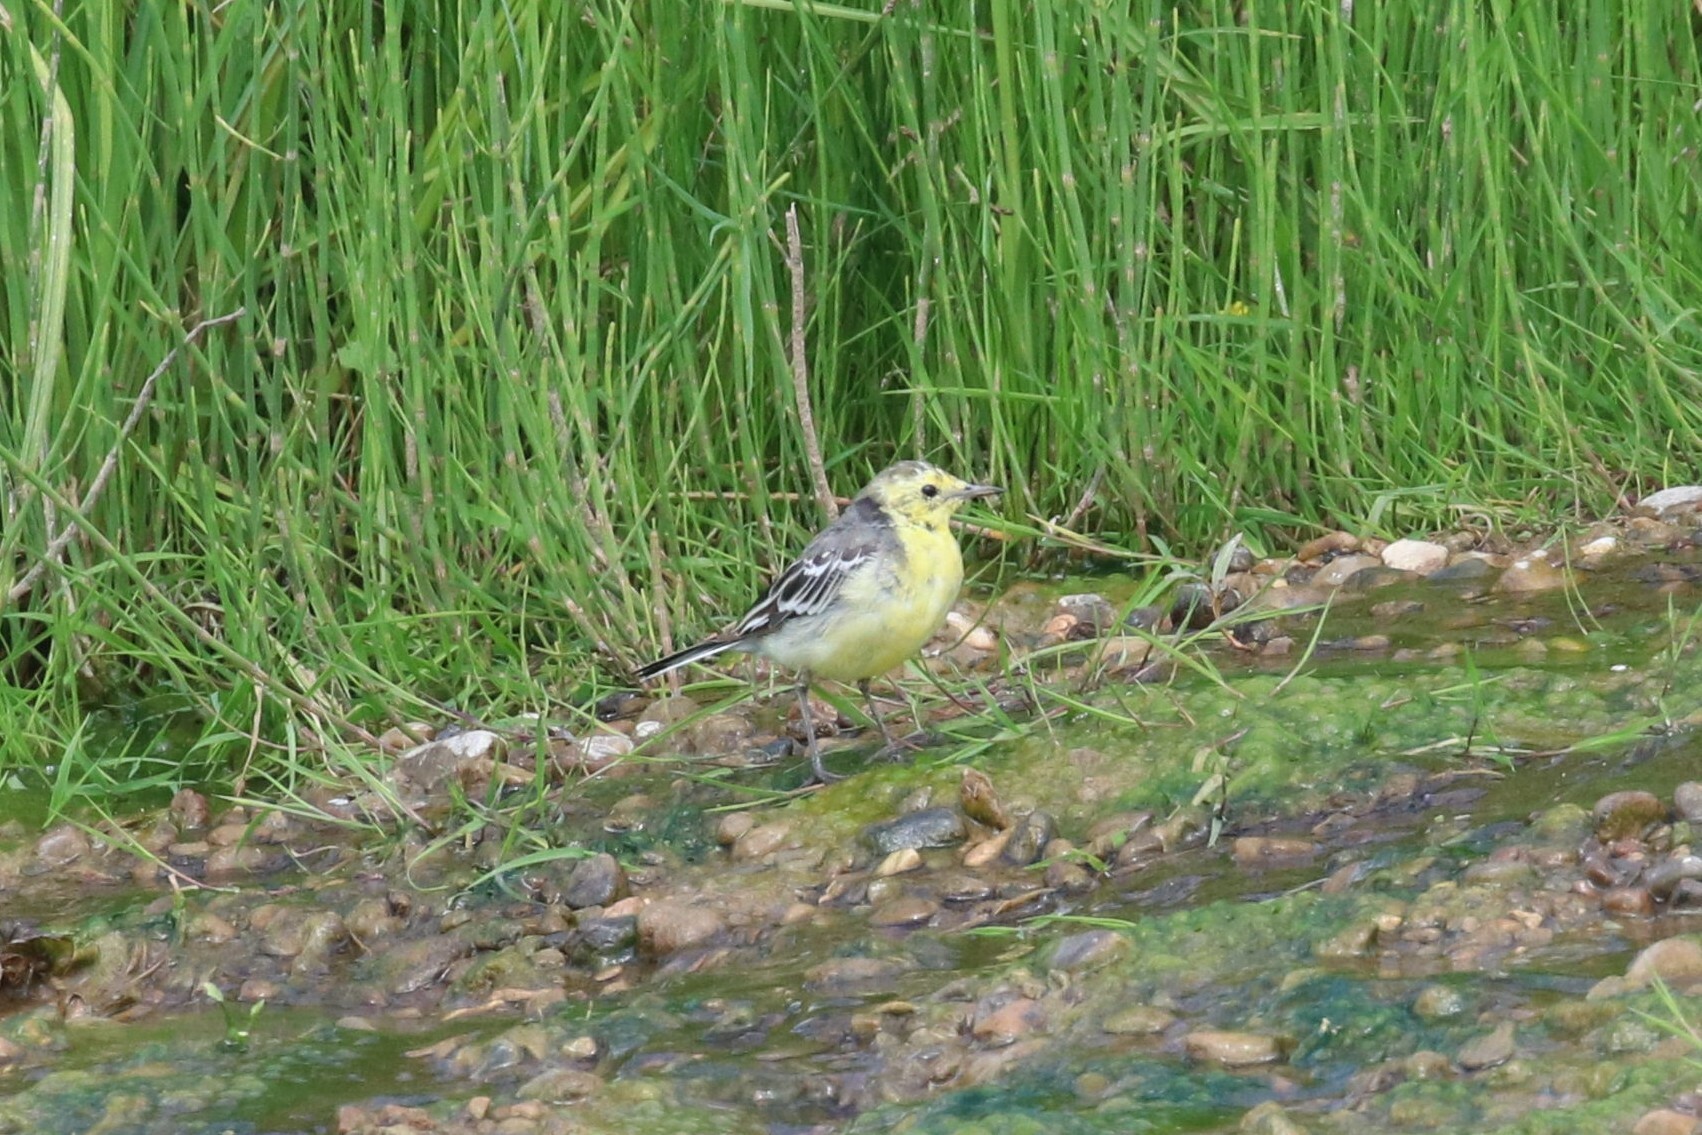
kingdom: Animalia
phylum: Chordata
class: Aves
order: Passeriformes
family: Motacillidae
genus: Motacilla
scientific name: Motacilla citreola
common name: Citrine wagtail
